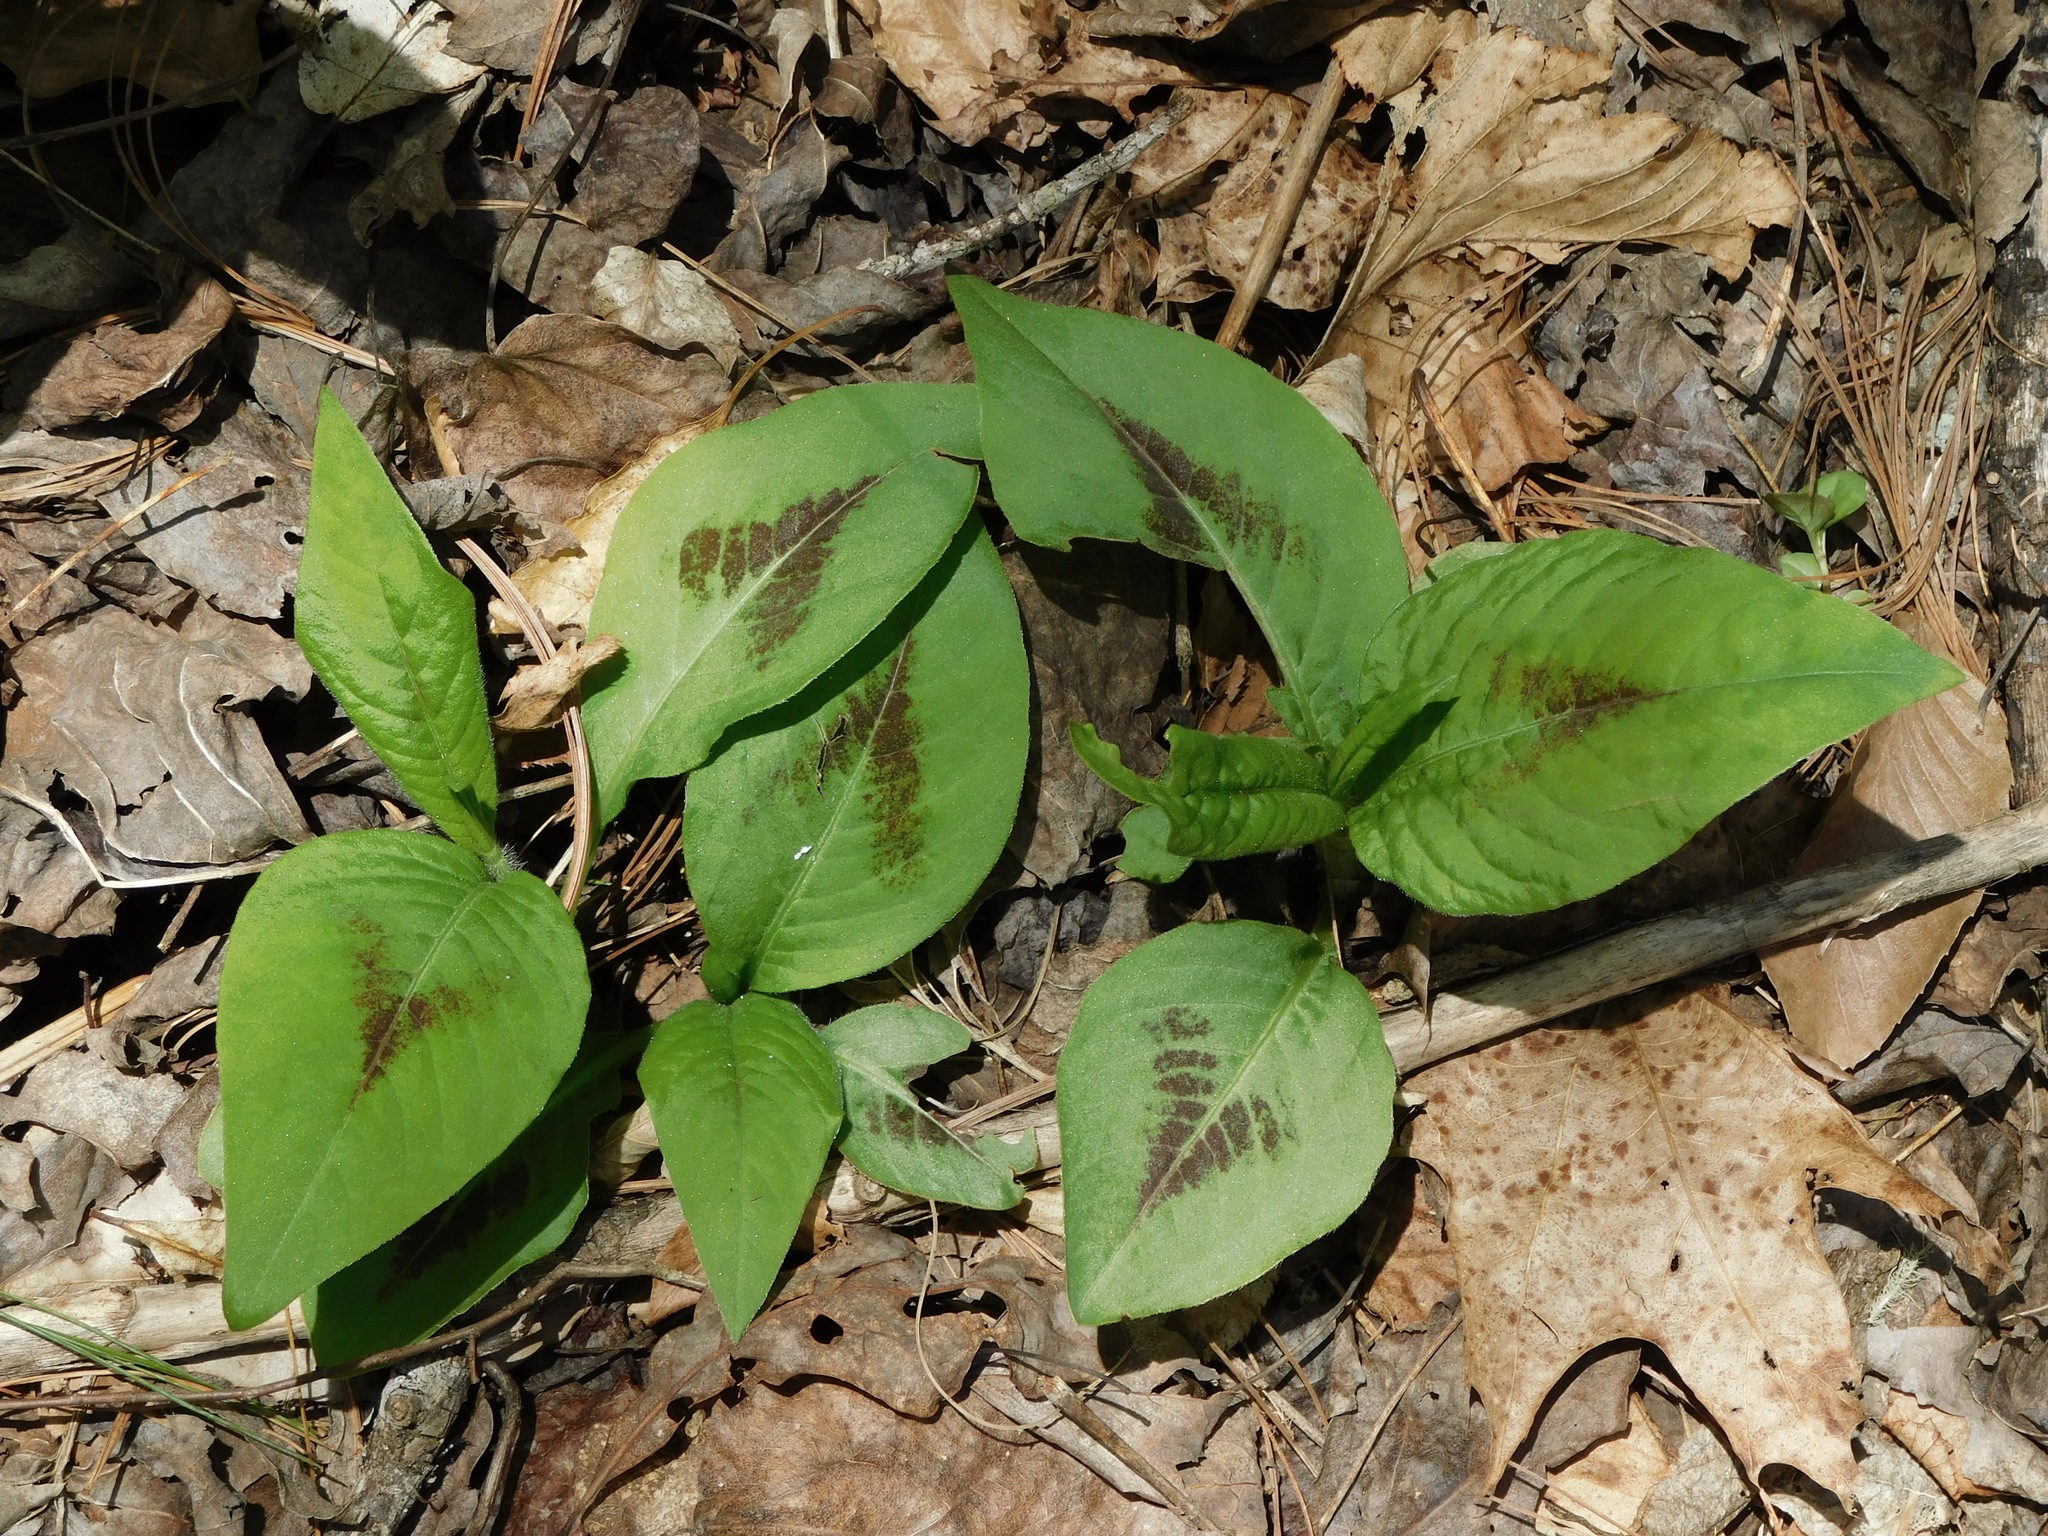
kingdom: Plantae
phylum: Tracheophyta
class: Magnoliopsida
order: Caryophyllales
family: Polygonaceae
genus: Persicaria
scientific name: Persicaria virginiana
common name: Jumpseed
